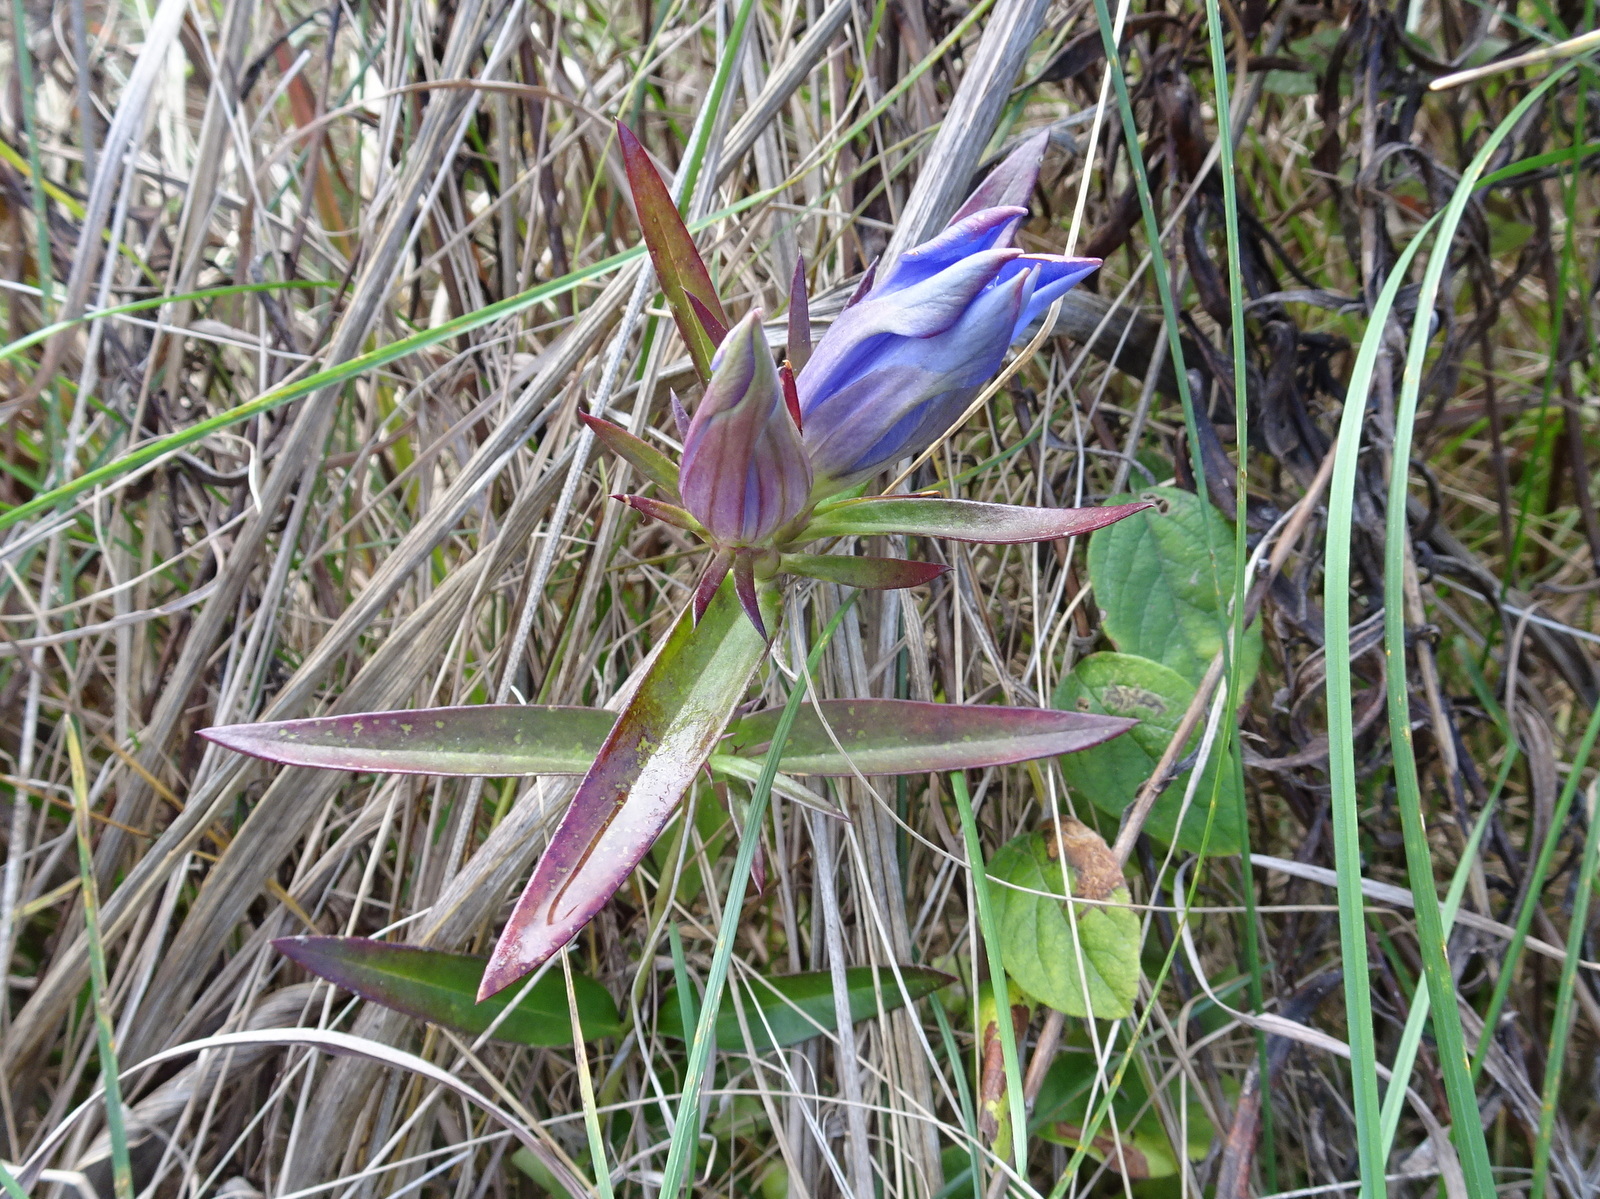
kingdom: Plantae
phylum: Tracheophyta
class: Magnoliopsida
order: Gentianales
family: Gentianaceae
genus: Gentiana
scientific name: Gentiana puberulenta
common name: Downy gentian
